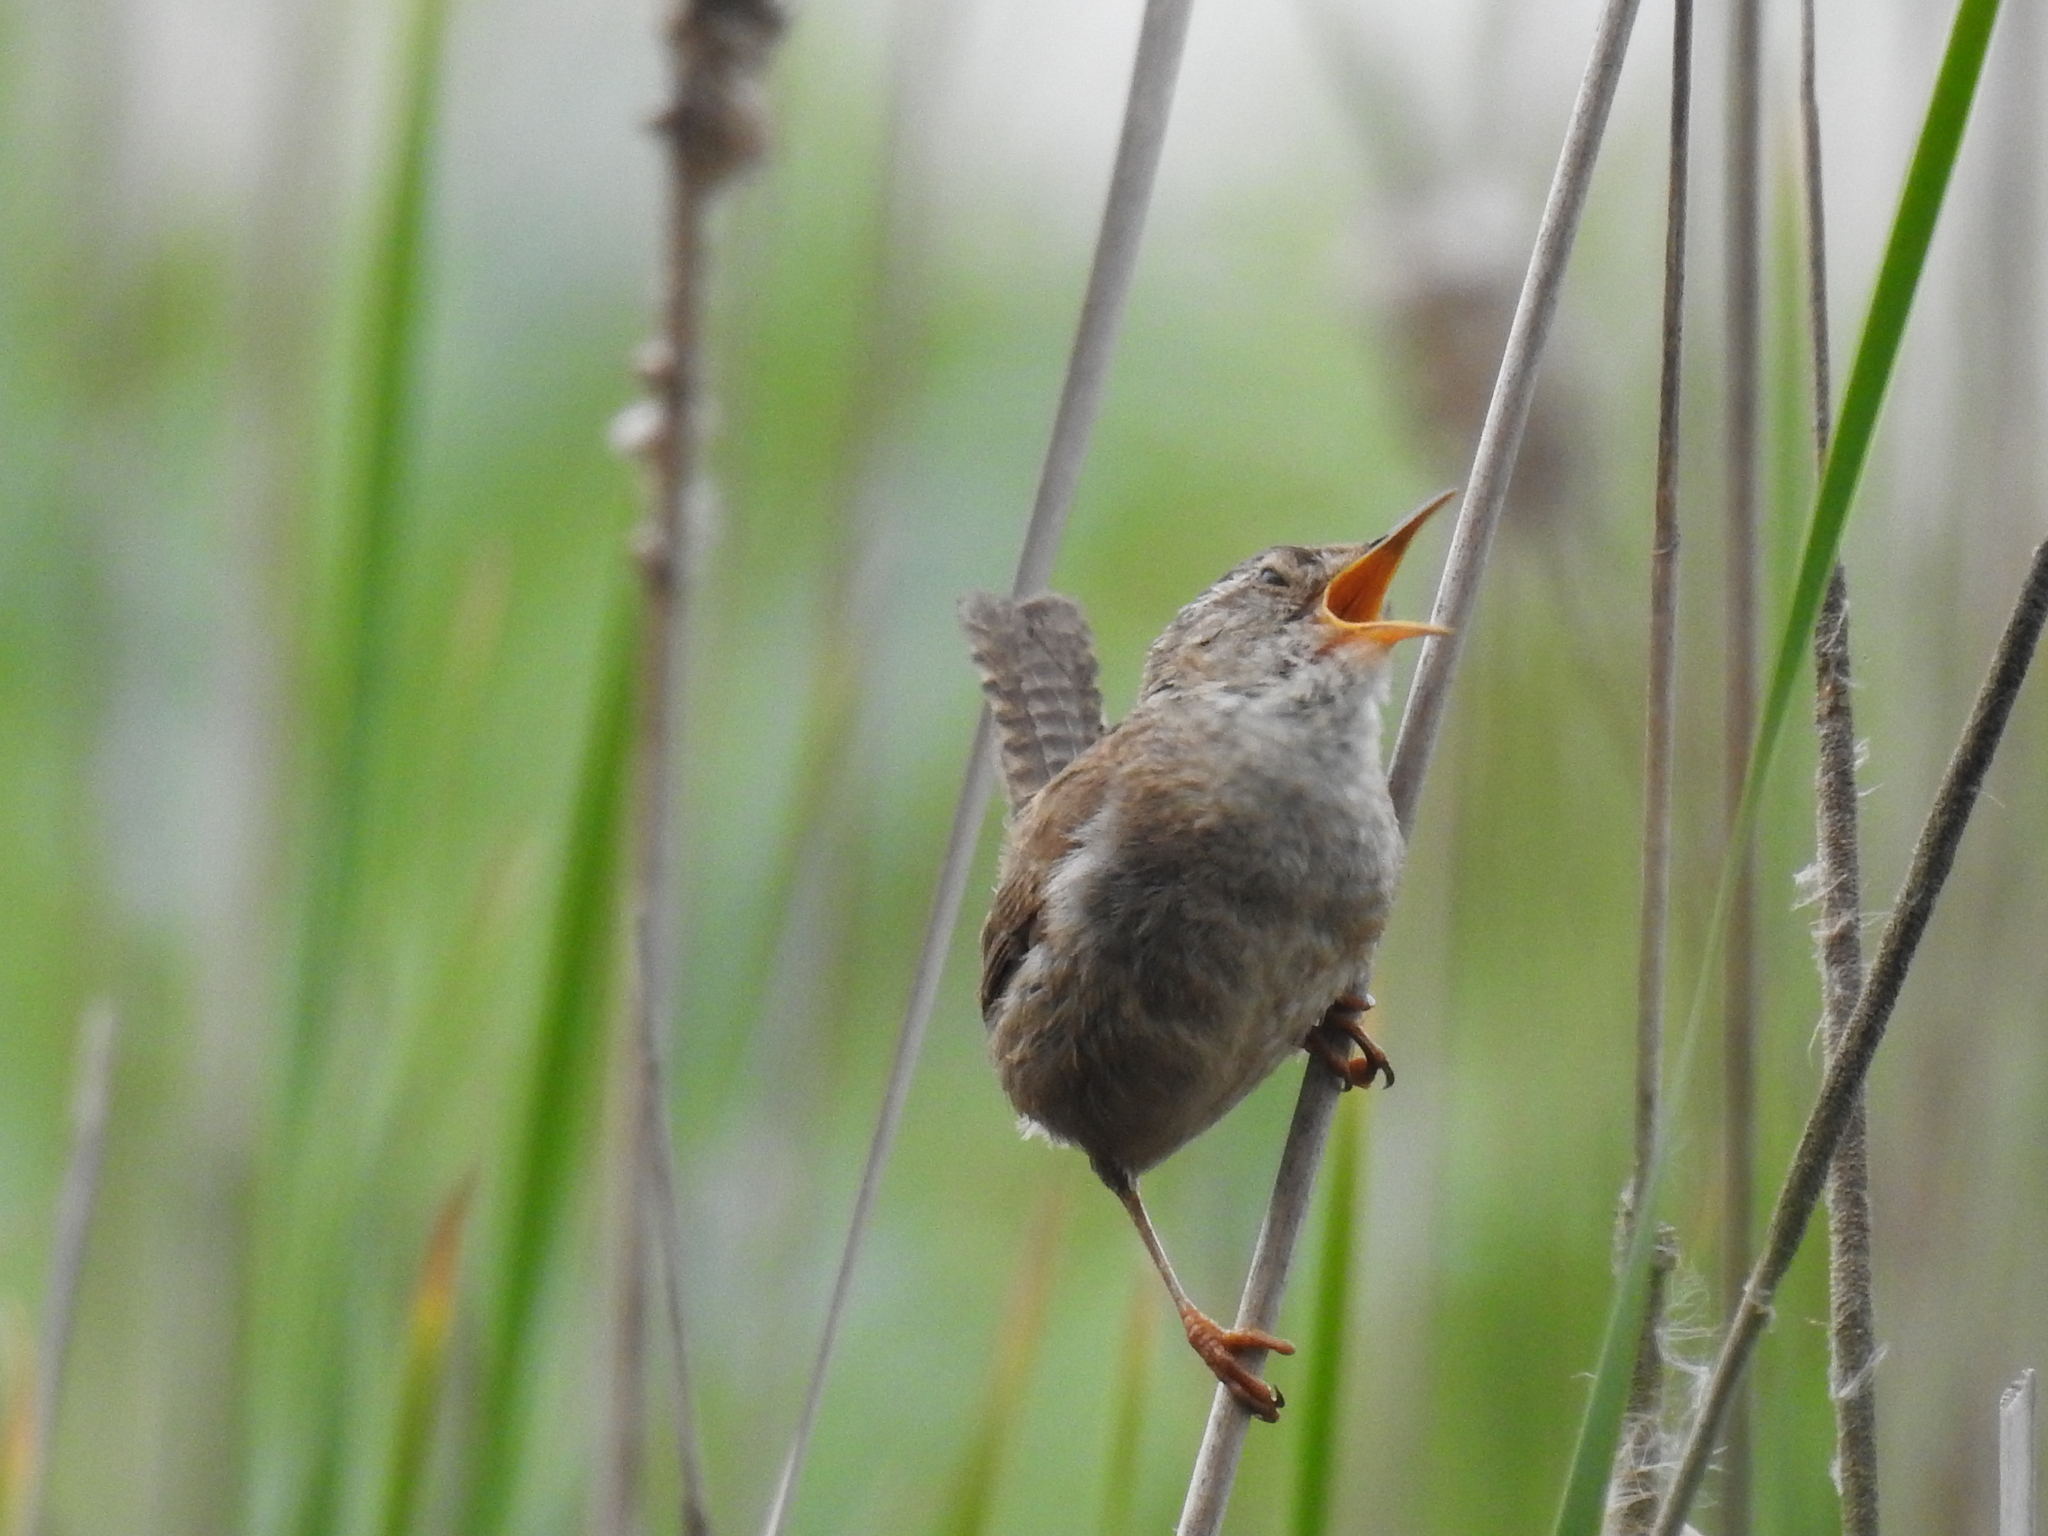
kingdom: Animalia
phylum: Chordata
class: Aves
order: Passeriformes
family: Troglodytidae
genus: Cistothorus
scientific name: Cistothorus palustris
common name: Marsh wren
